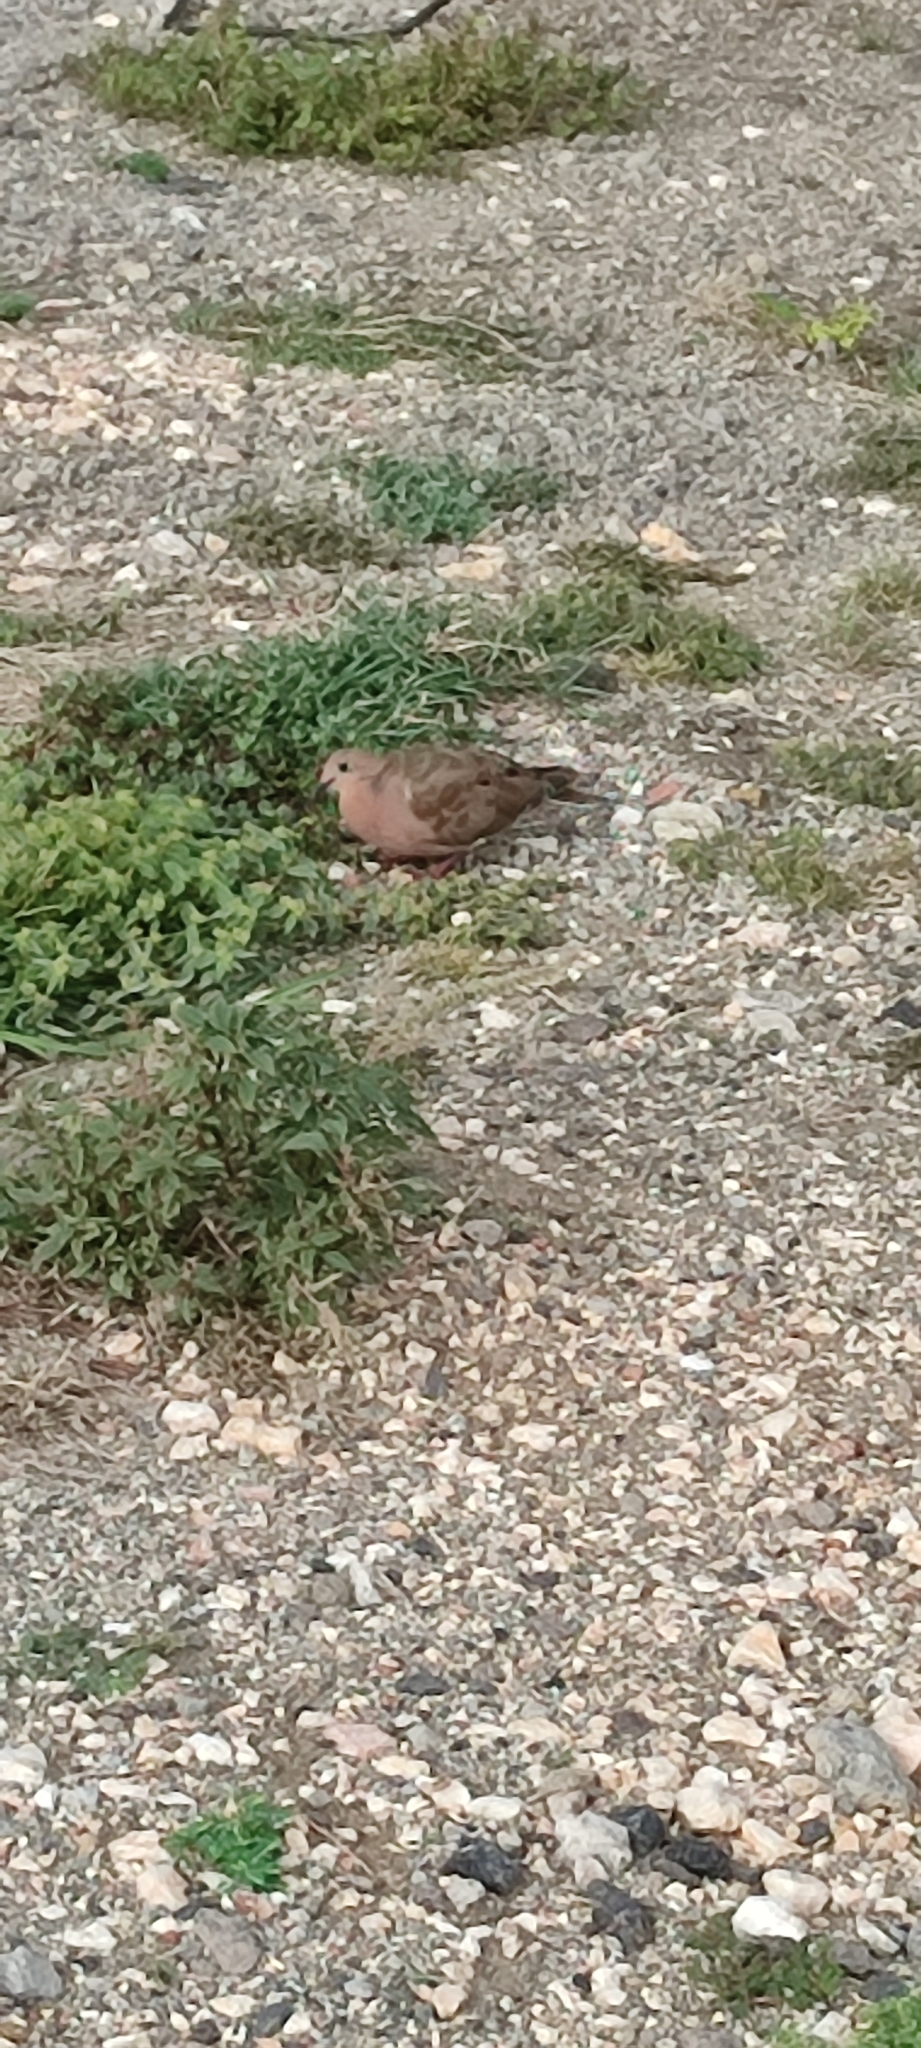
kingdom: Animalia
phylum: Chordata
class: Aves
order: Columbiformes
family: Columbidae
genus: Zenaida
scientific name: Zenaida aurita
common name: Zenaida dove
